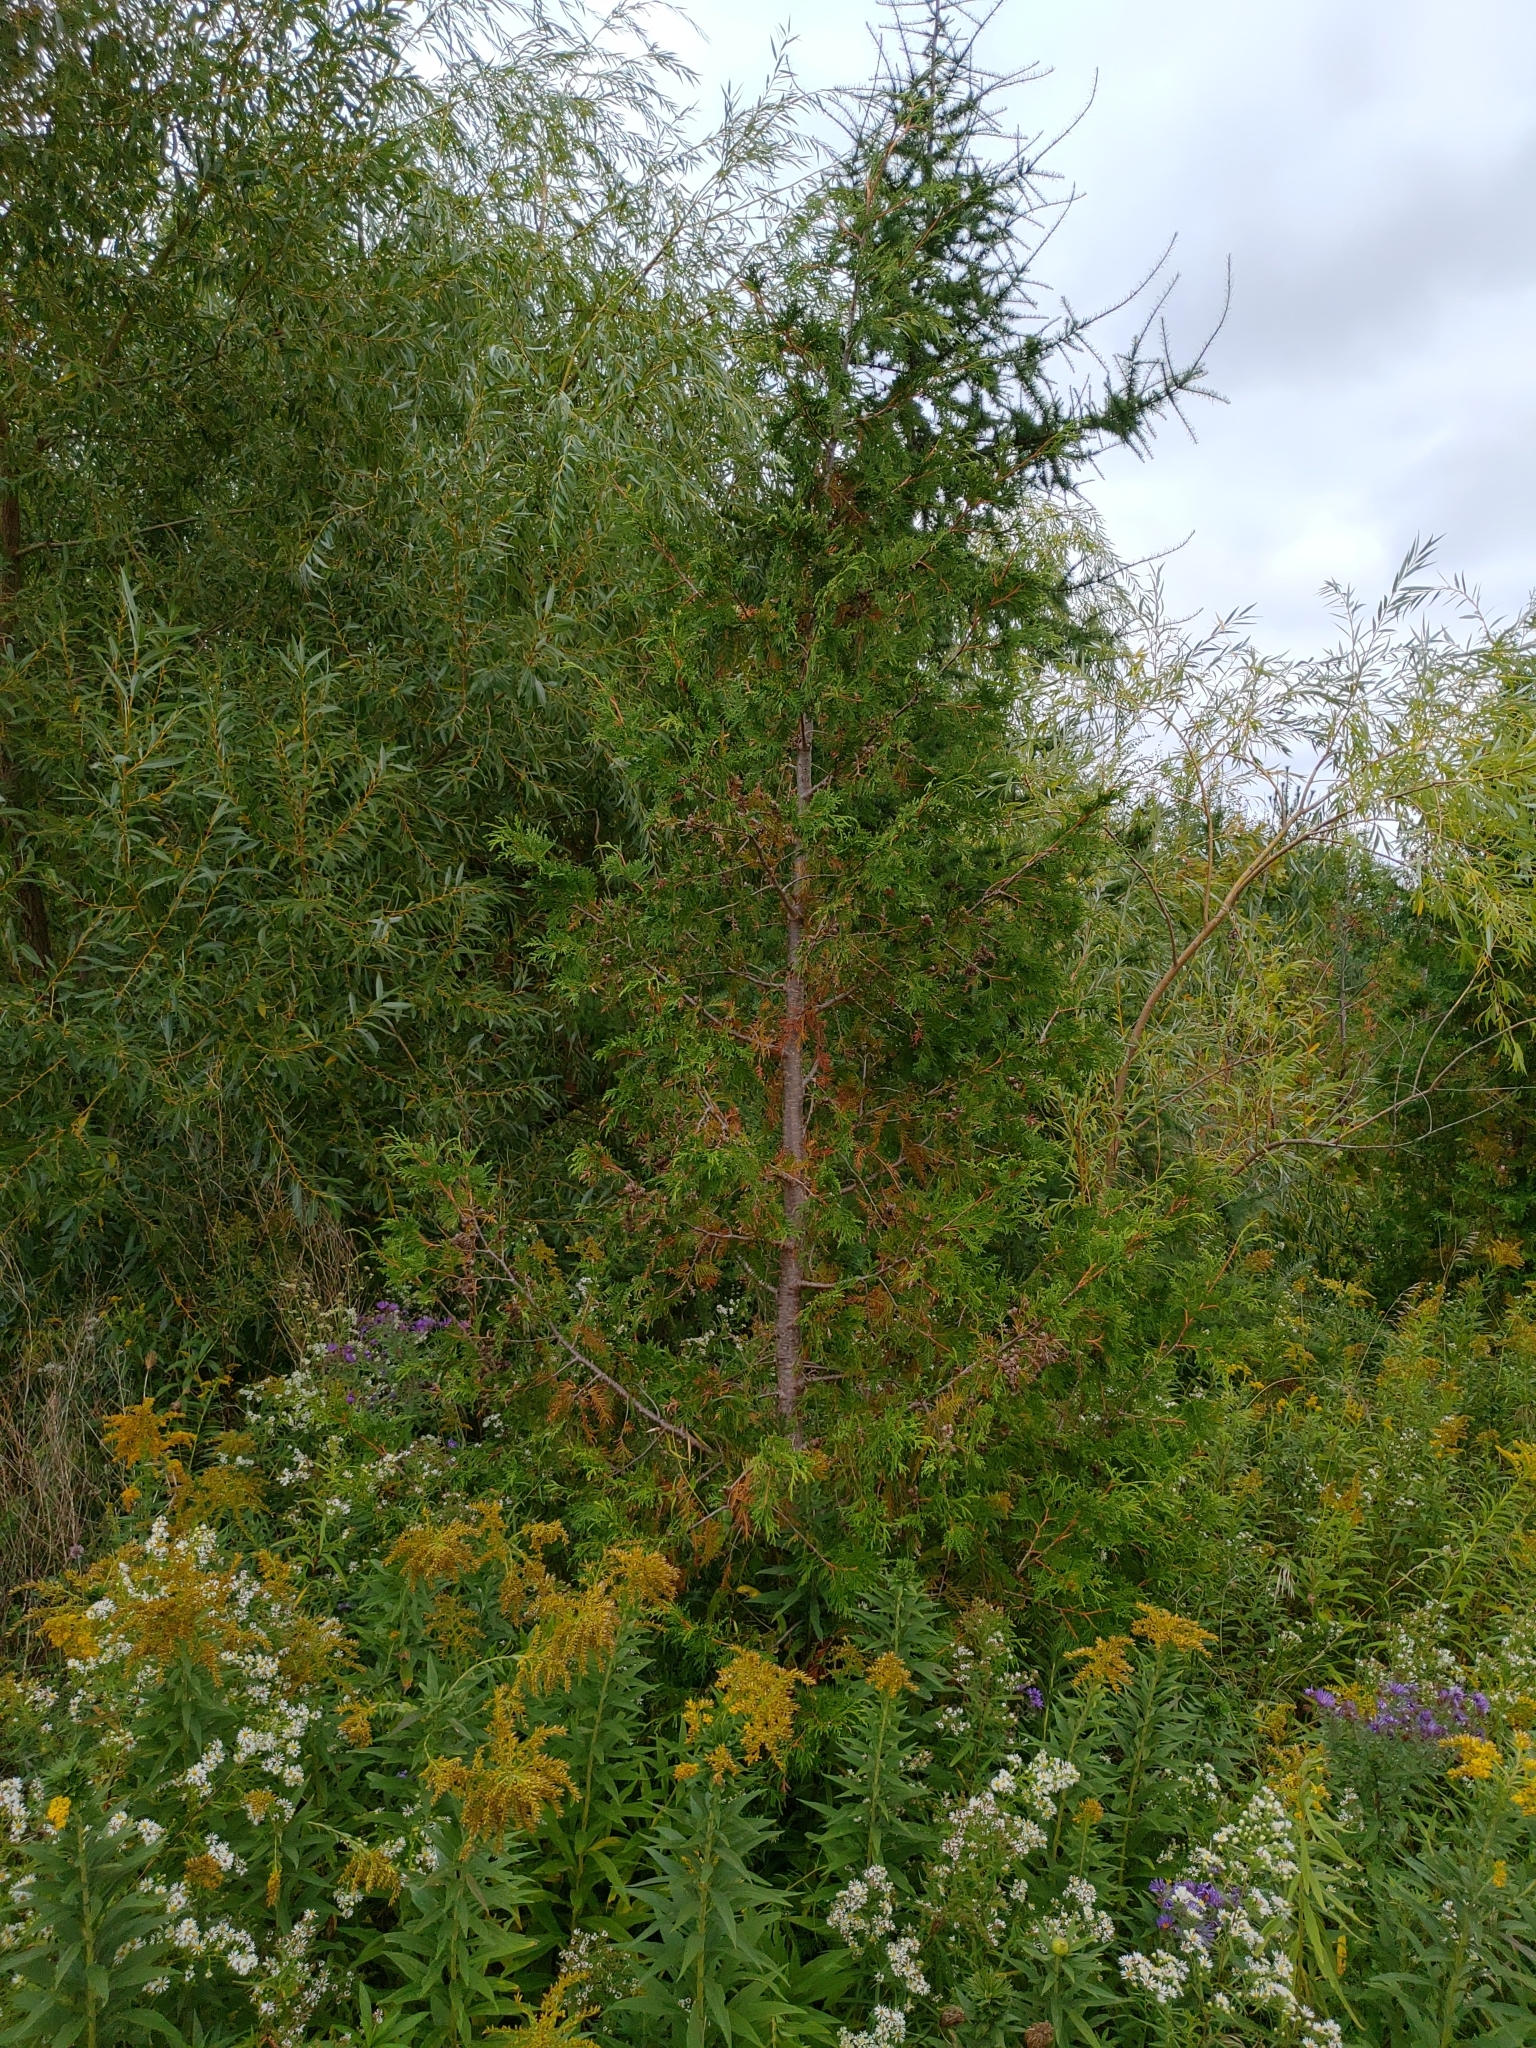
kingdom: Plantae
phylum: Tracheophyta
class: Pinopsida
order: Pinales
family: Cupressaceae
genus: Thuja
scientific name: Thuja occidentalis
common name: Northern white-cedar
